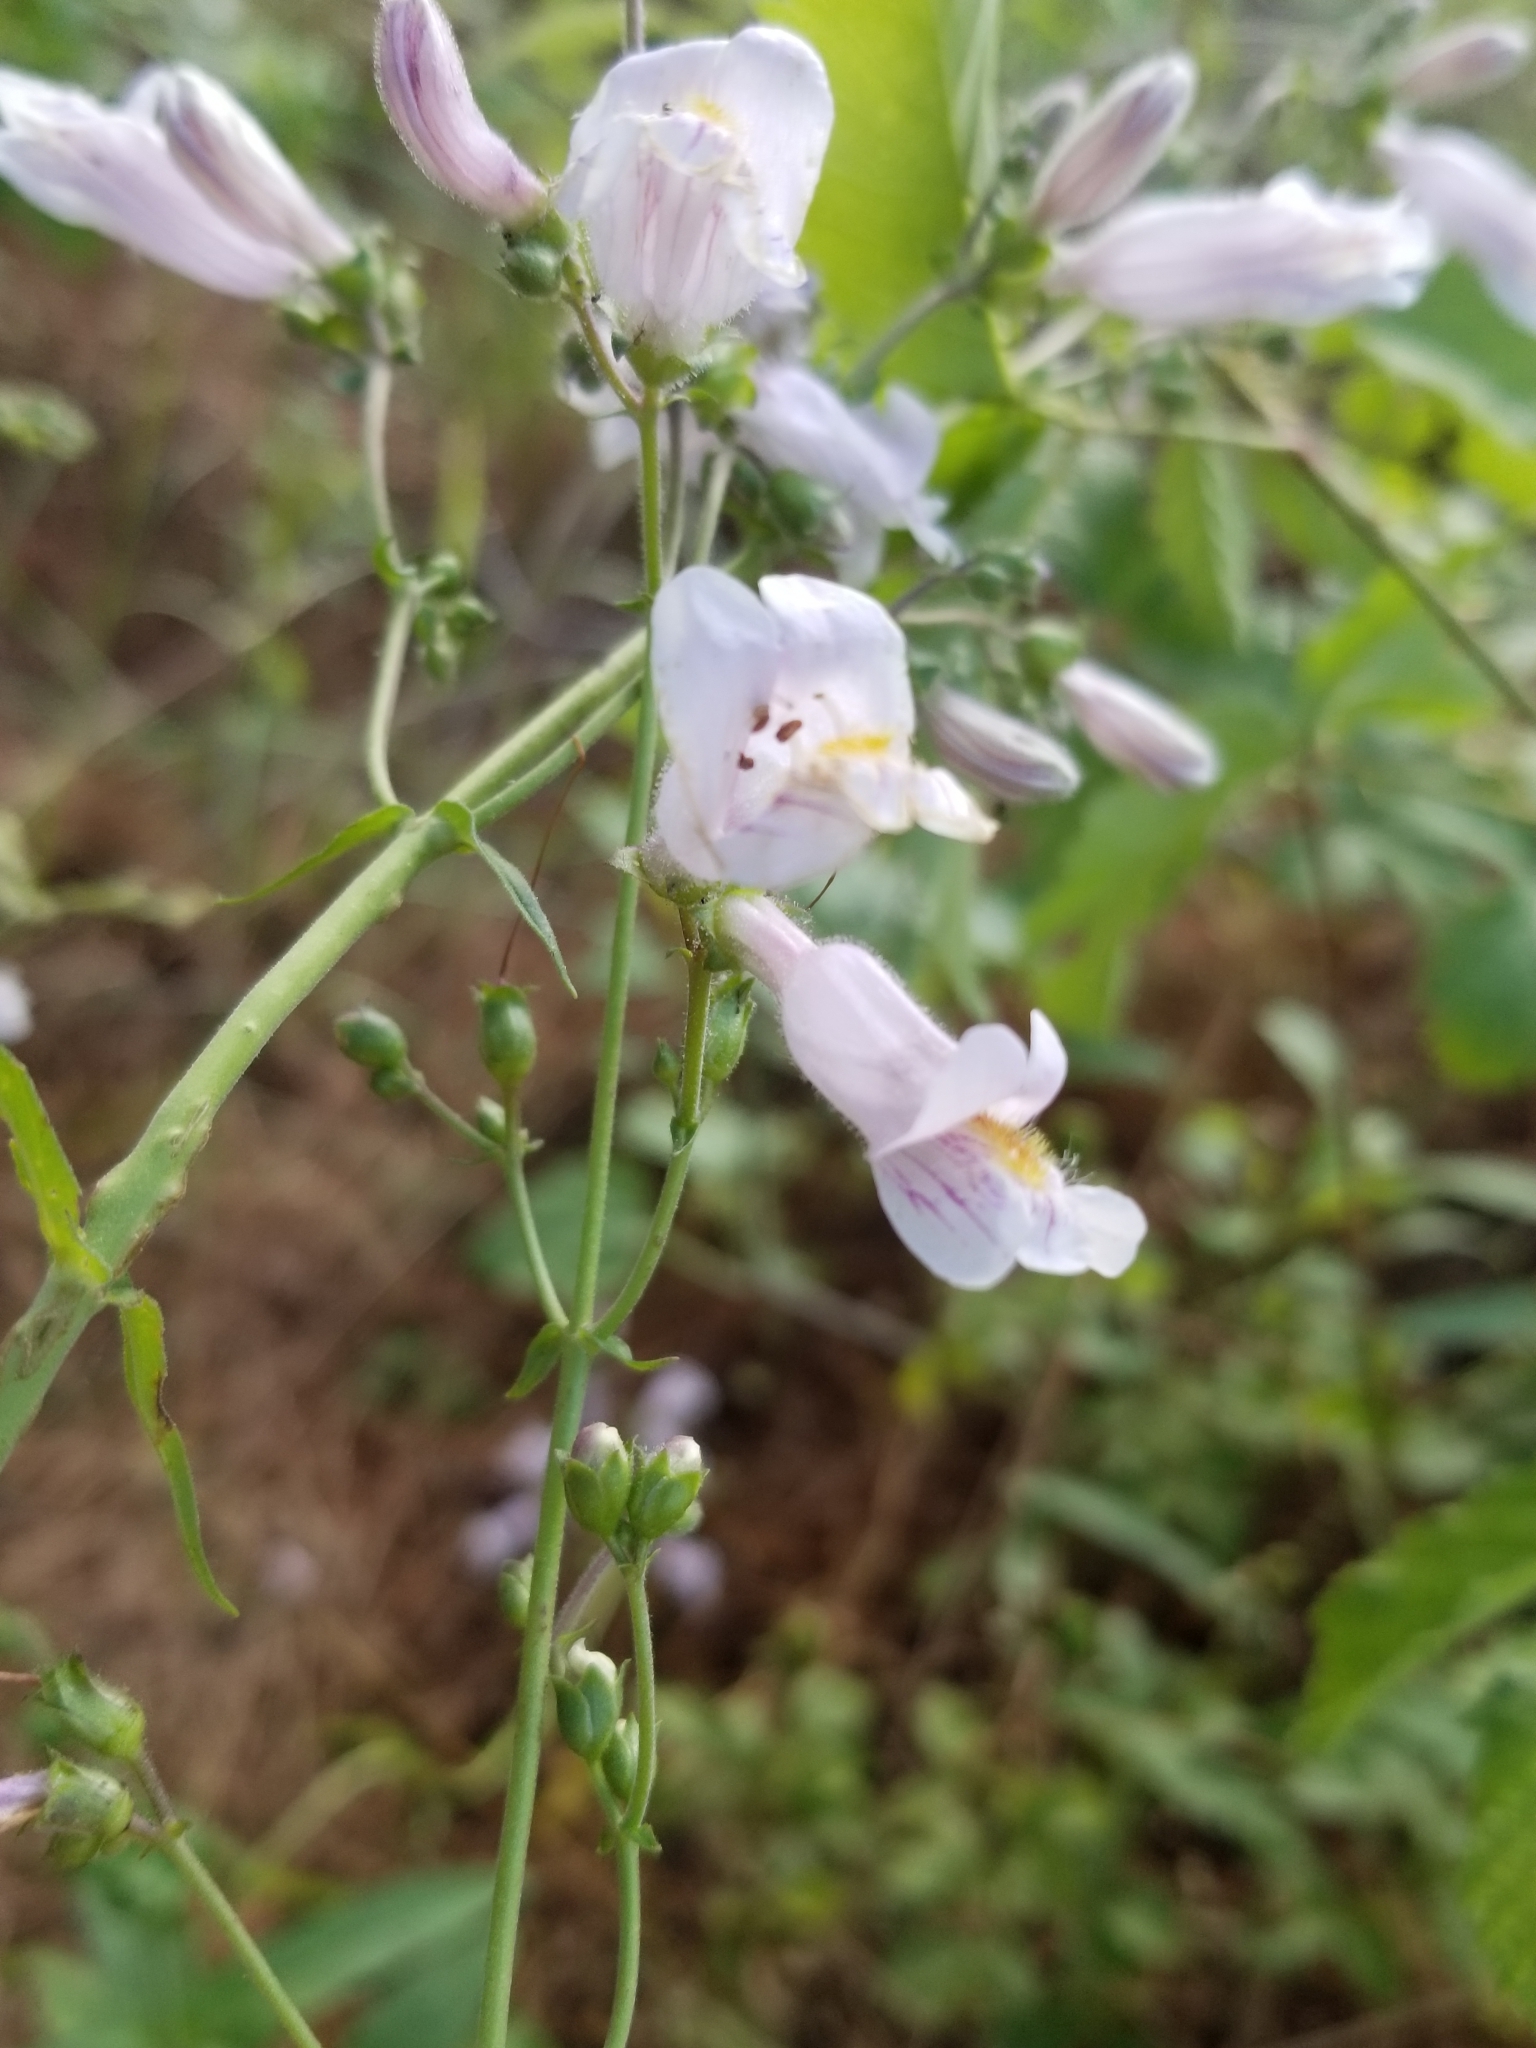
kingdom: Plantae
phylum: Tracheophyta
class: Magnoliopsida
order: Lamiales
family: Plantaginaceae
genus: Penstemon
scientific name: Penstemon laxiflorus
